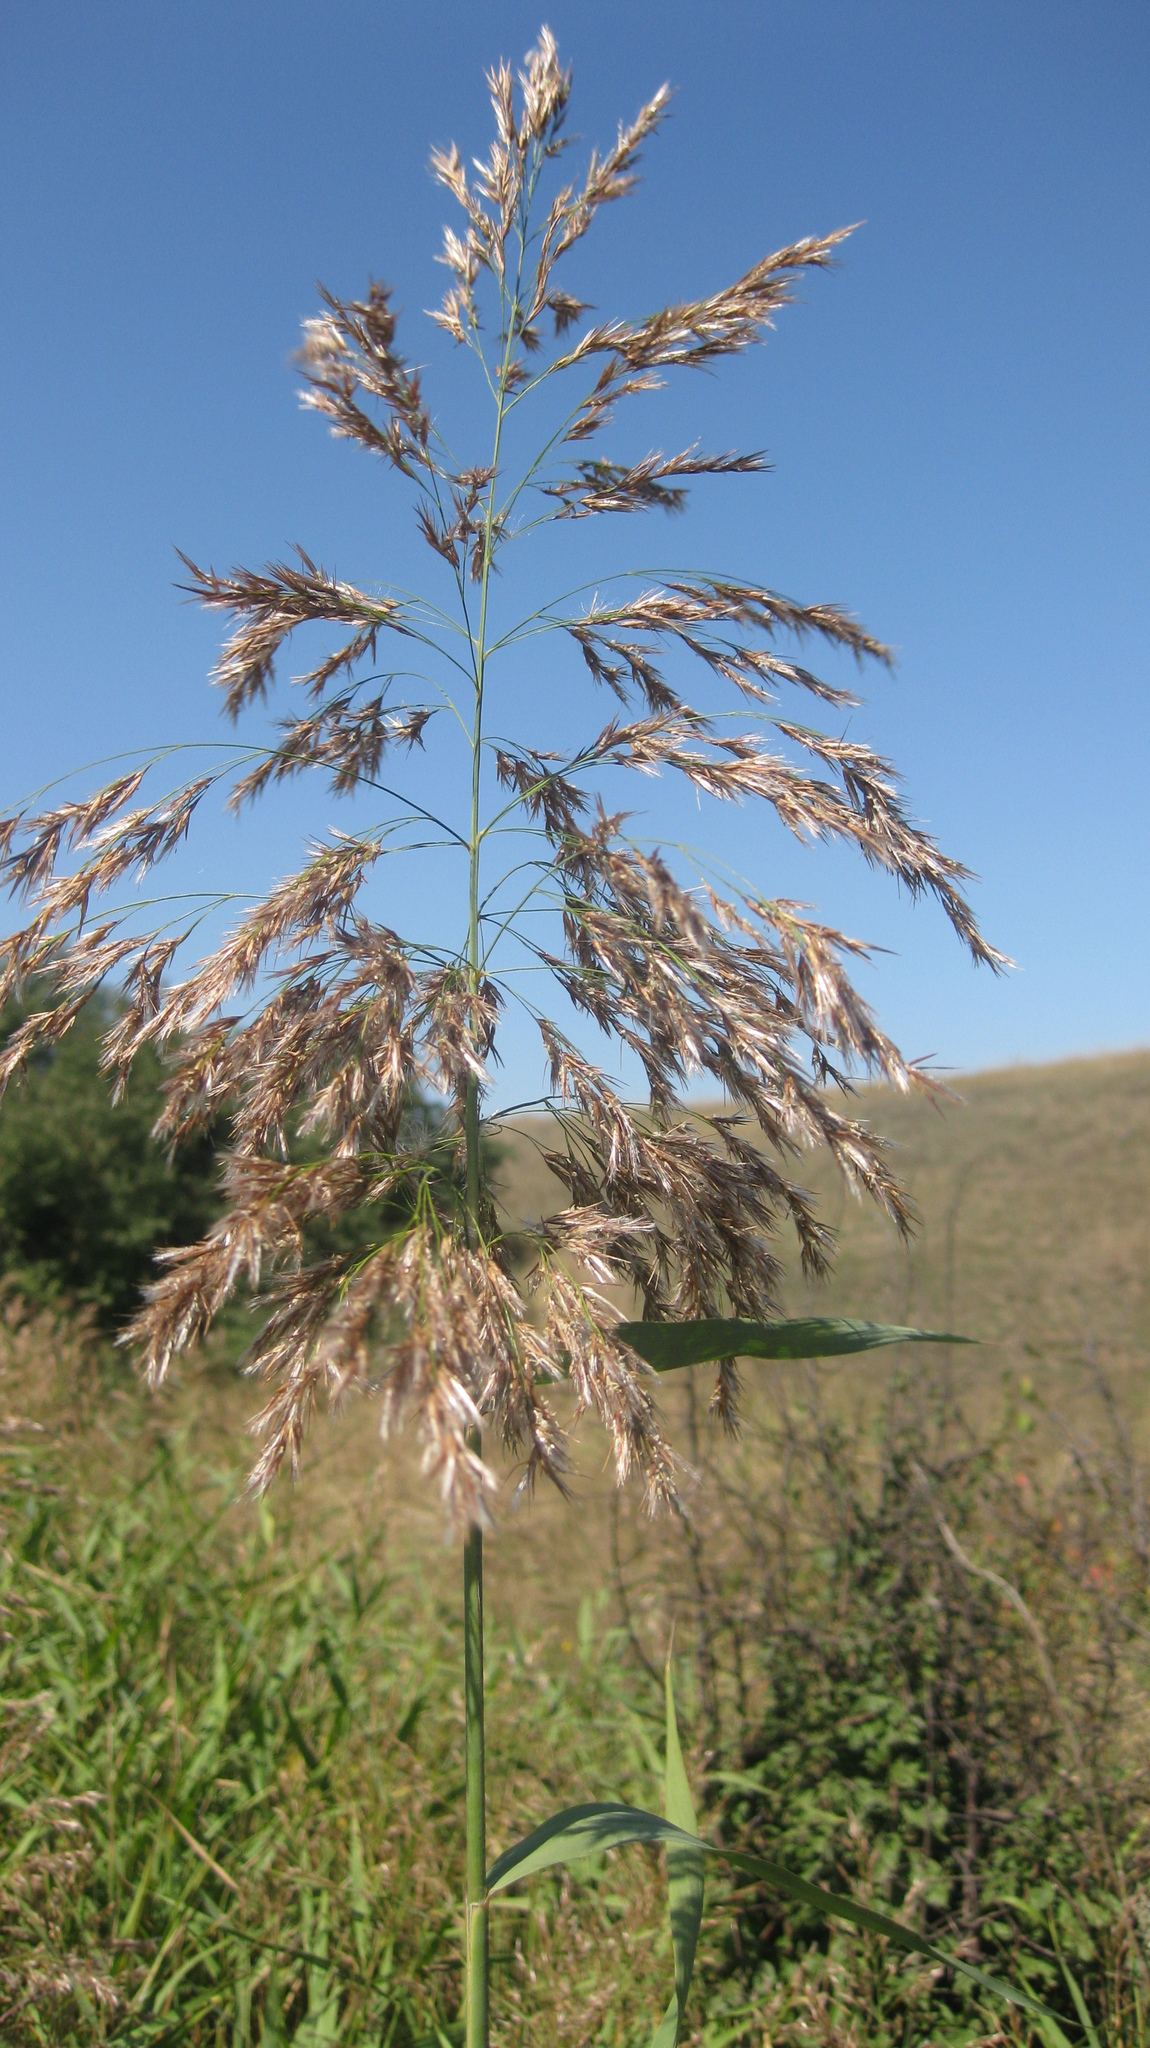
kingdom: Plantae
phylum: Tracheophyta
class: Liliopsida
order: Poales
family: Poaceae
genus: Phragmites
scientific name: Phragmites australis
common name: Common reed
